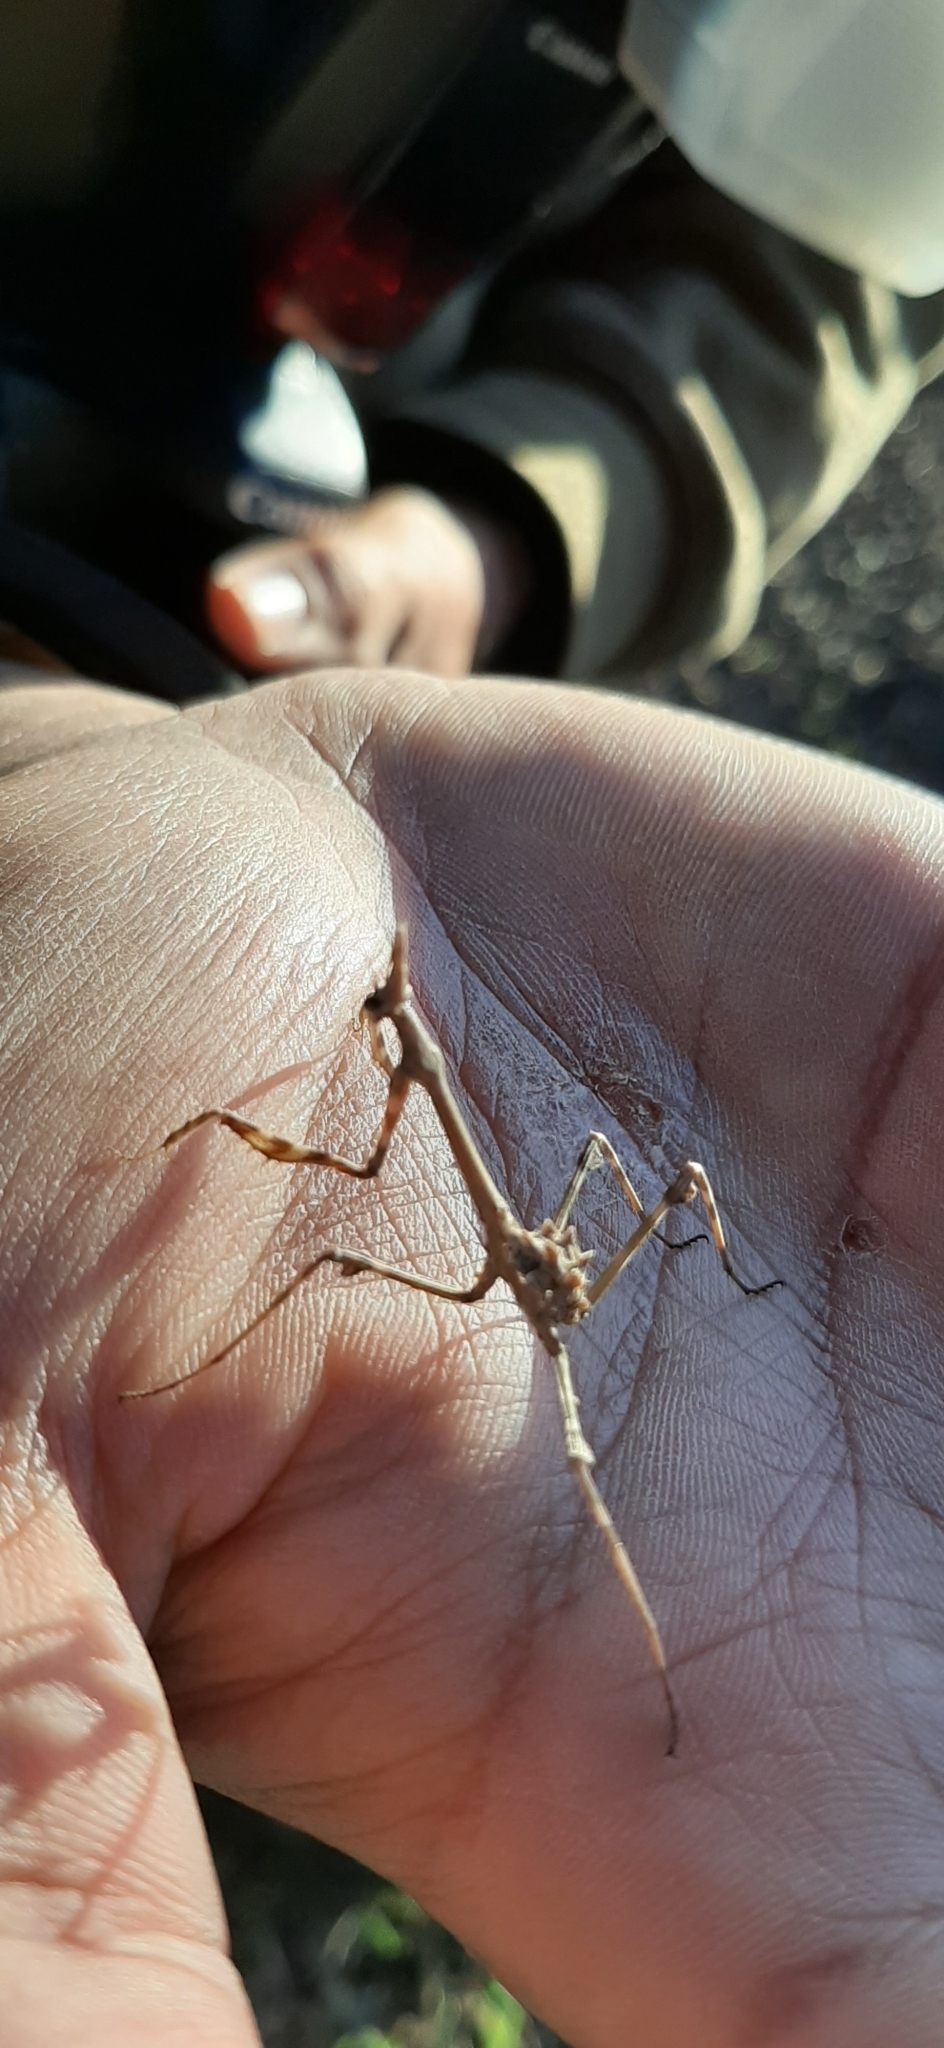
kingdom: Animalia
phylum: Arthropoda
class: Insecta
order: Mantodea
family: Empusidae
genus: Empusa
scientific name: Empusa pennata
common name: Conehead mantis
